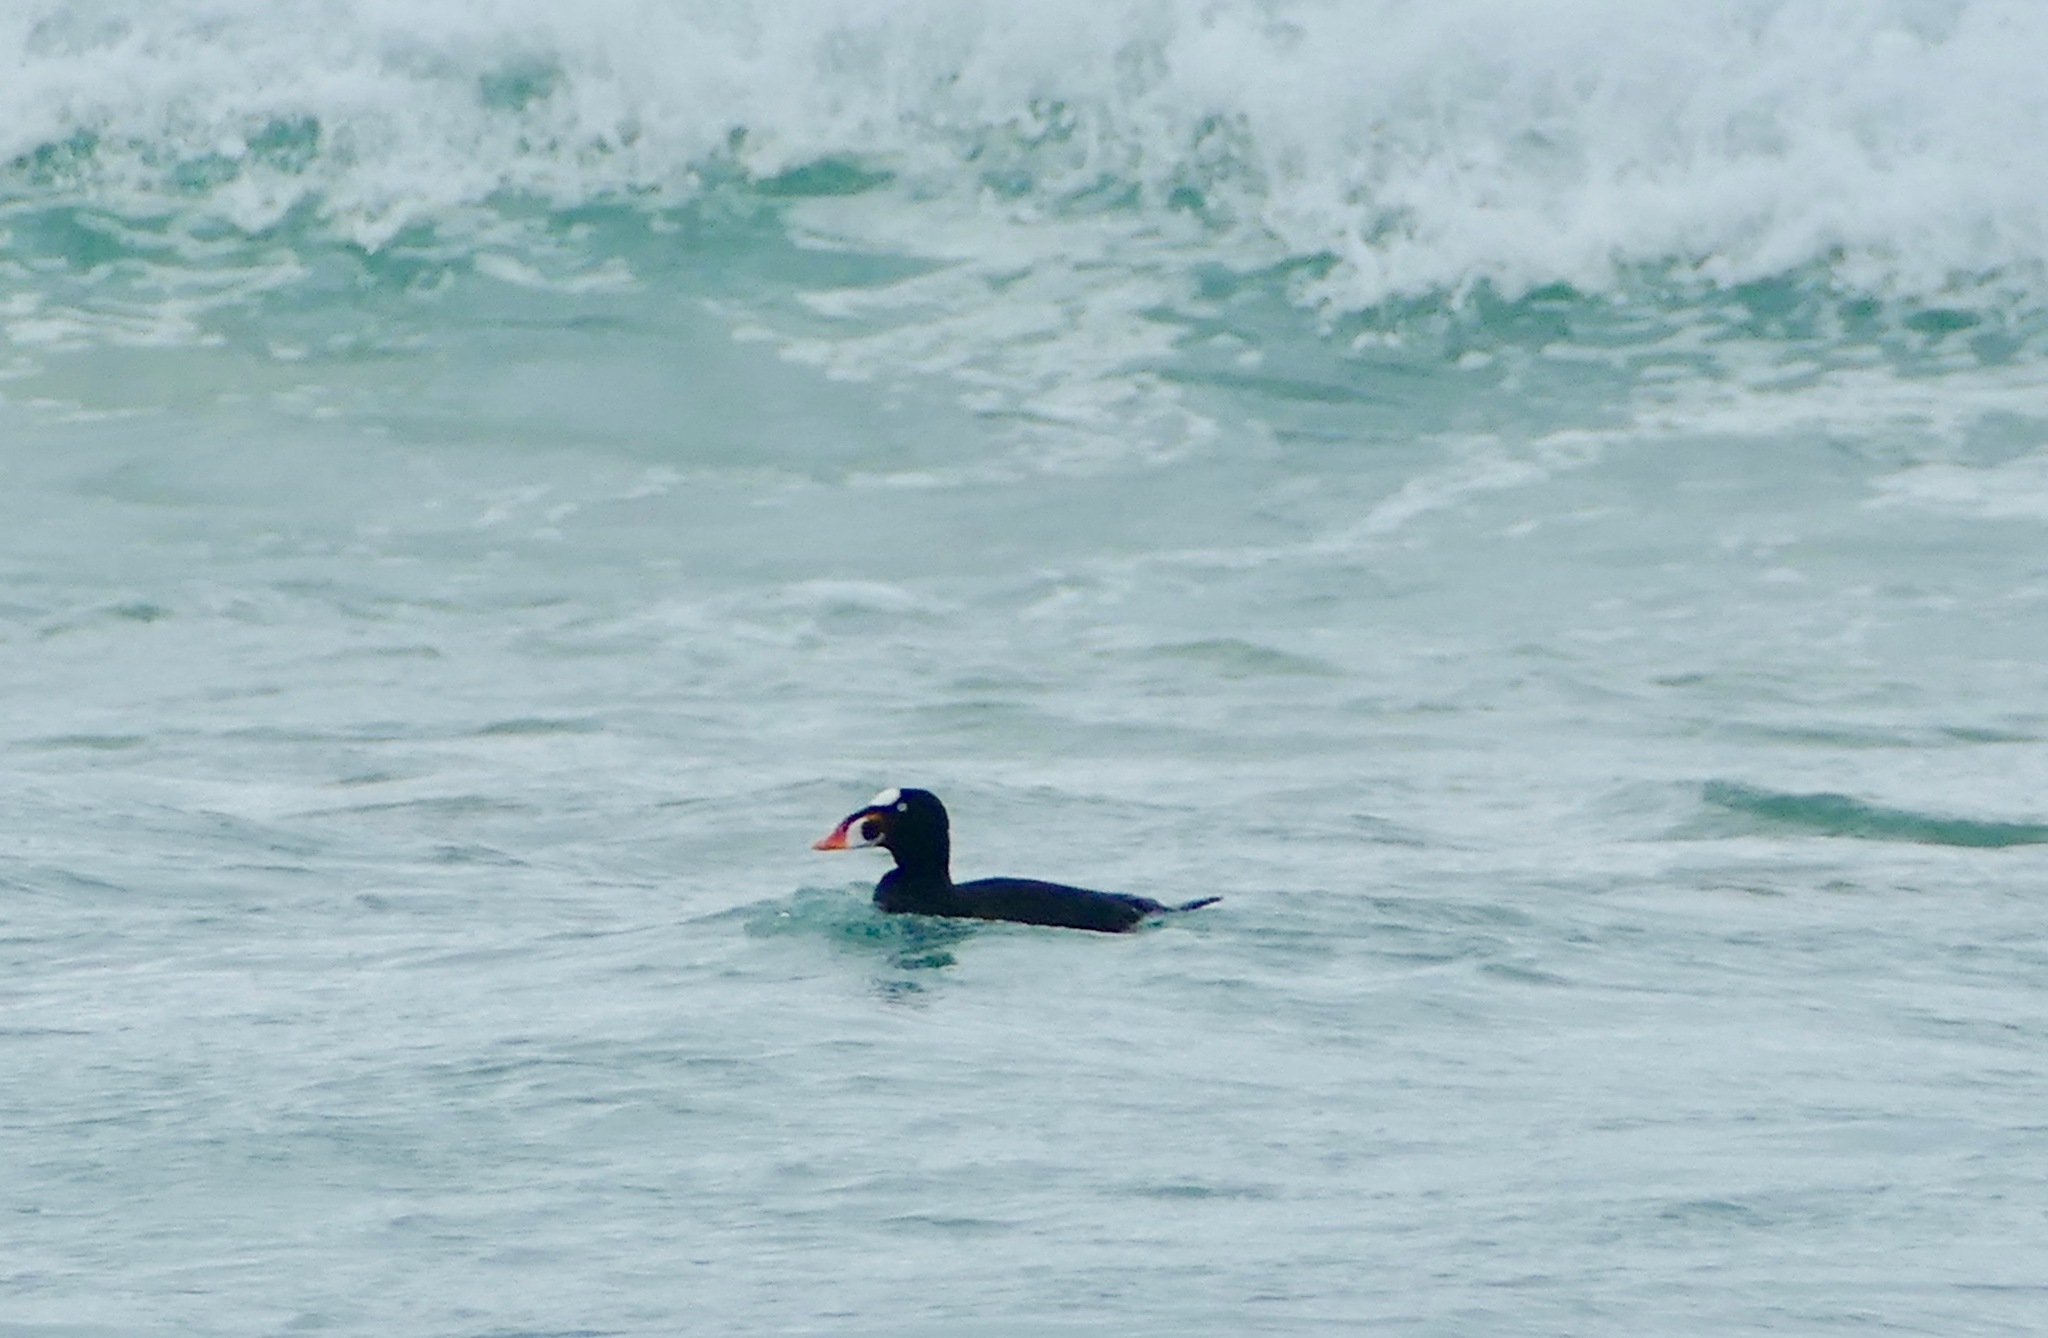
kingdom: Animalia
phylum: Chordata
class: Aves
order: Anseriformes
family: Anatidae
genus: Melanitta
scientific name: Melanitta perspicillata
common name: Surf scoter
